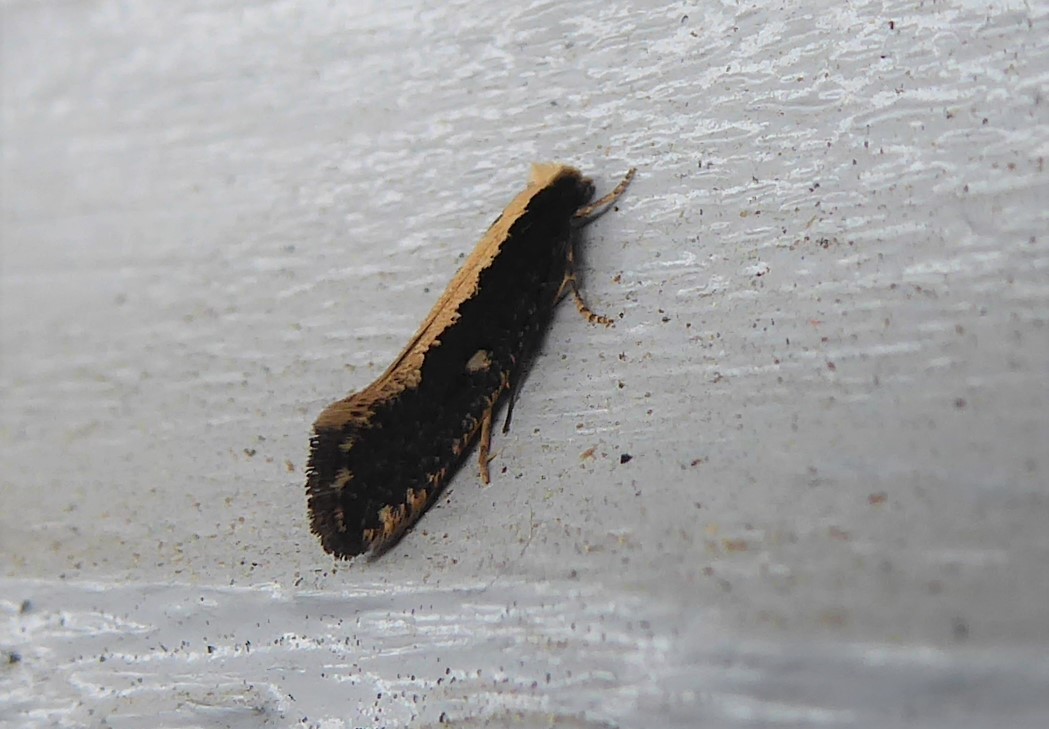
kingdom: Animalia
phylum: Arthropoda
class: Insecta
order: Lepidoptera
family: Tineidae
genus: Monopis
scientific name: Monopis ethelella
